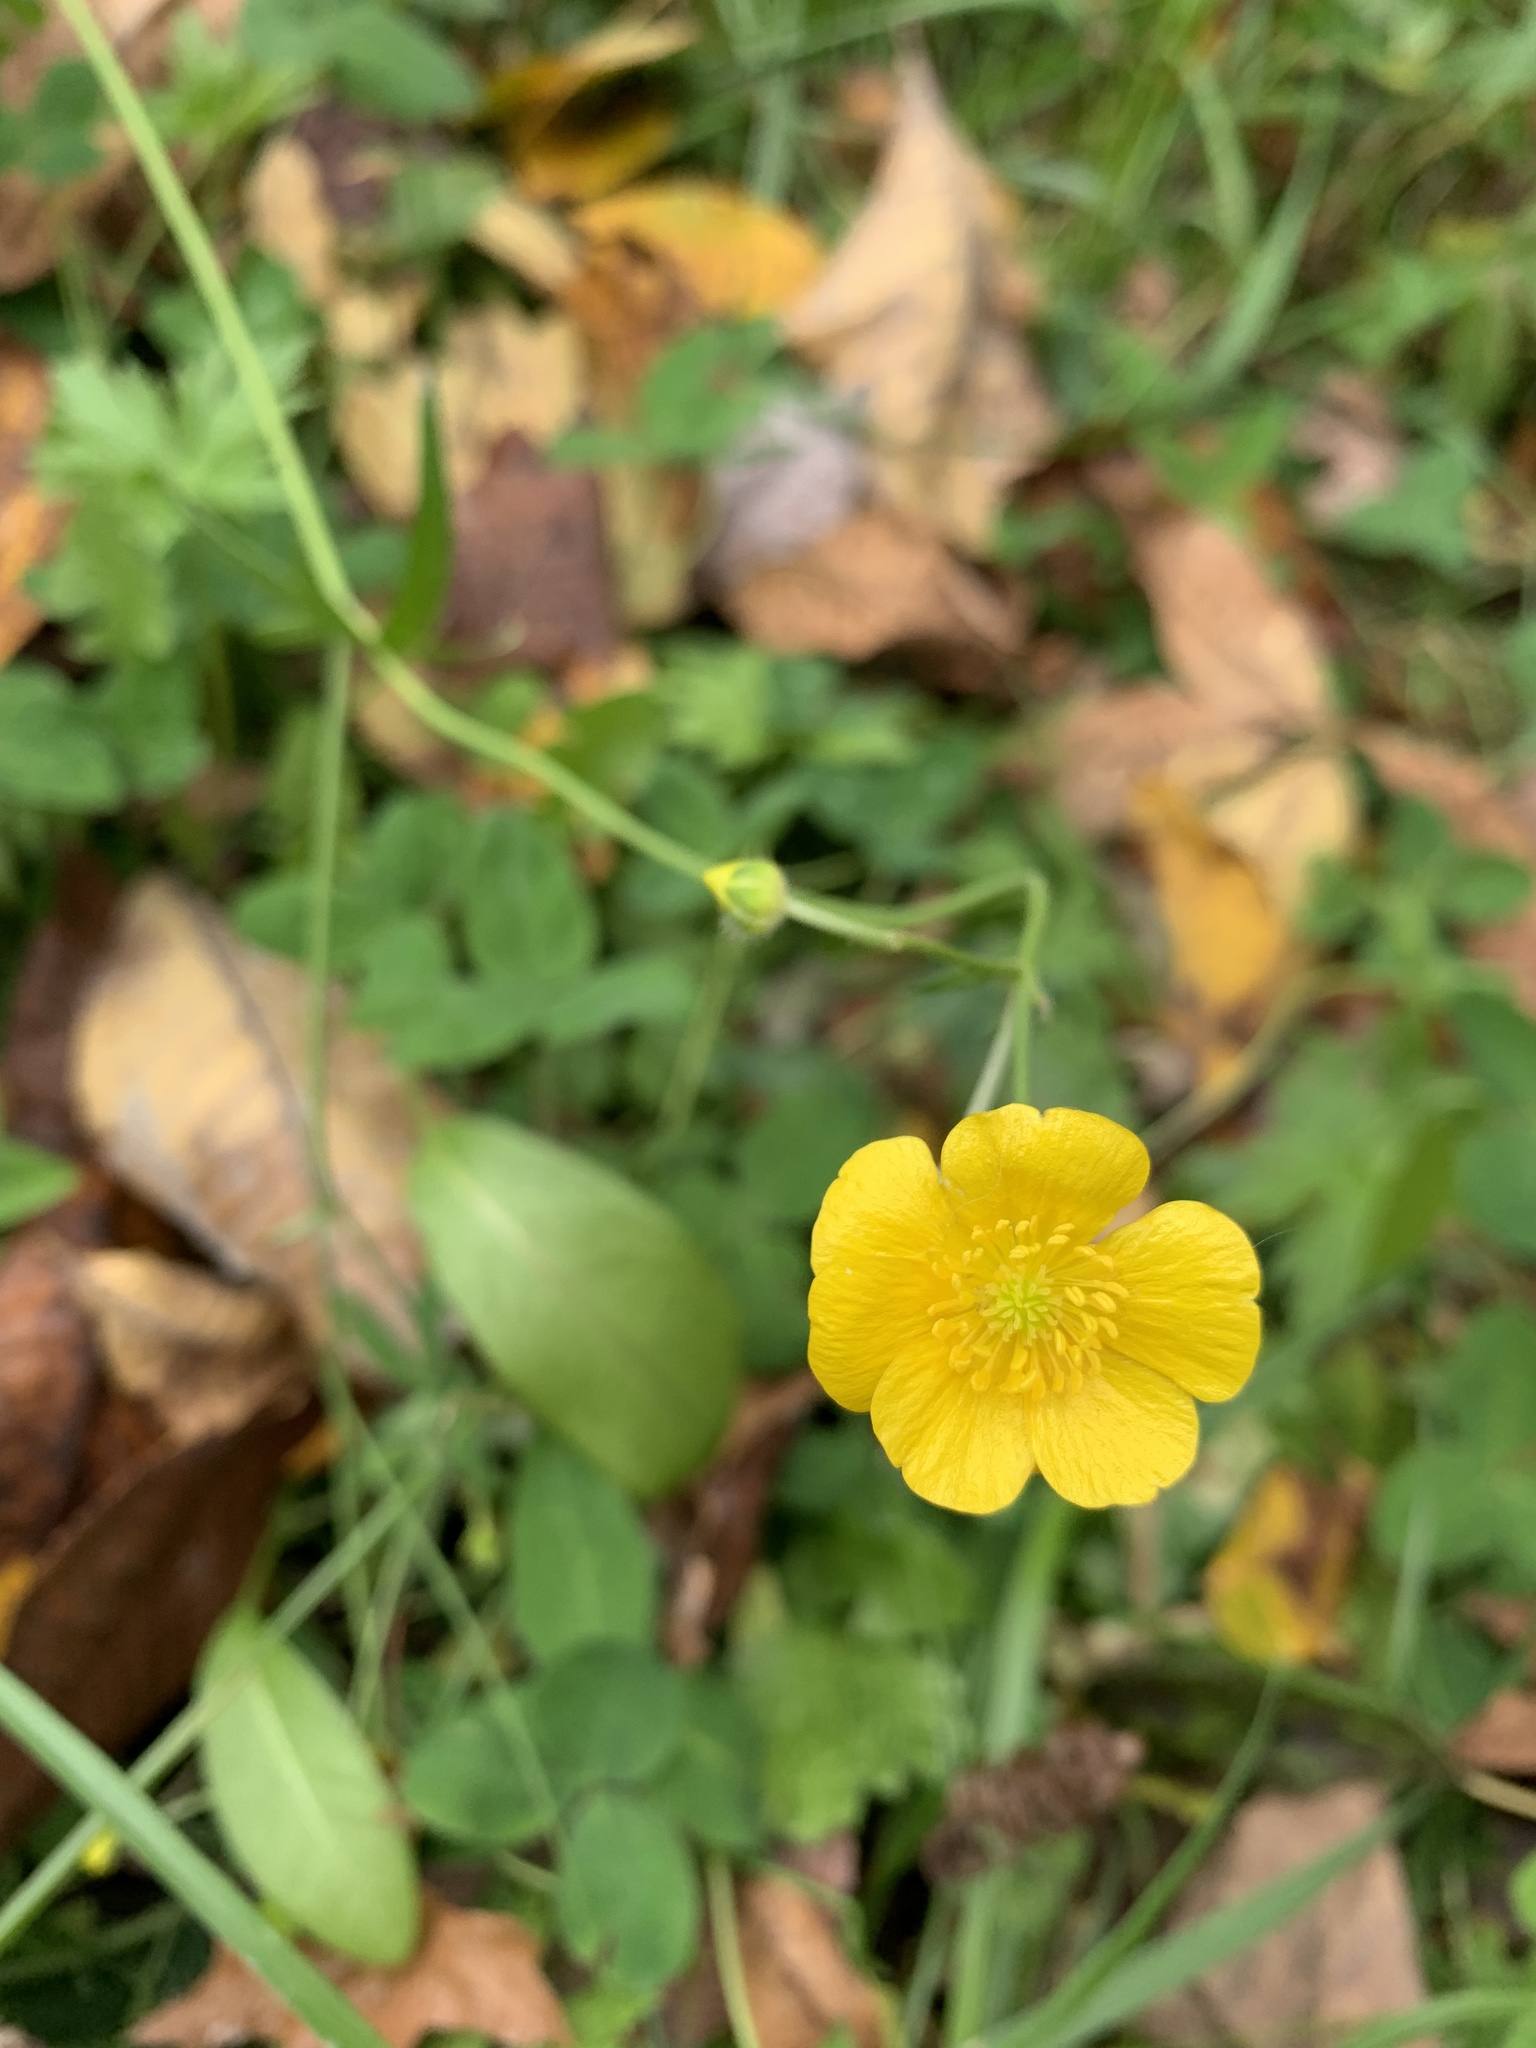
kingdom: Plantae
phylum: Tracheophyta
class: Magnoliopsida
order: Ranunculales
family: Ranunculaceae
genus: Ranunculus
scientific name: Ranunculus acris
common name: Meadow buttercup
